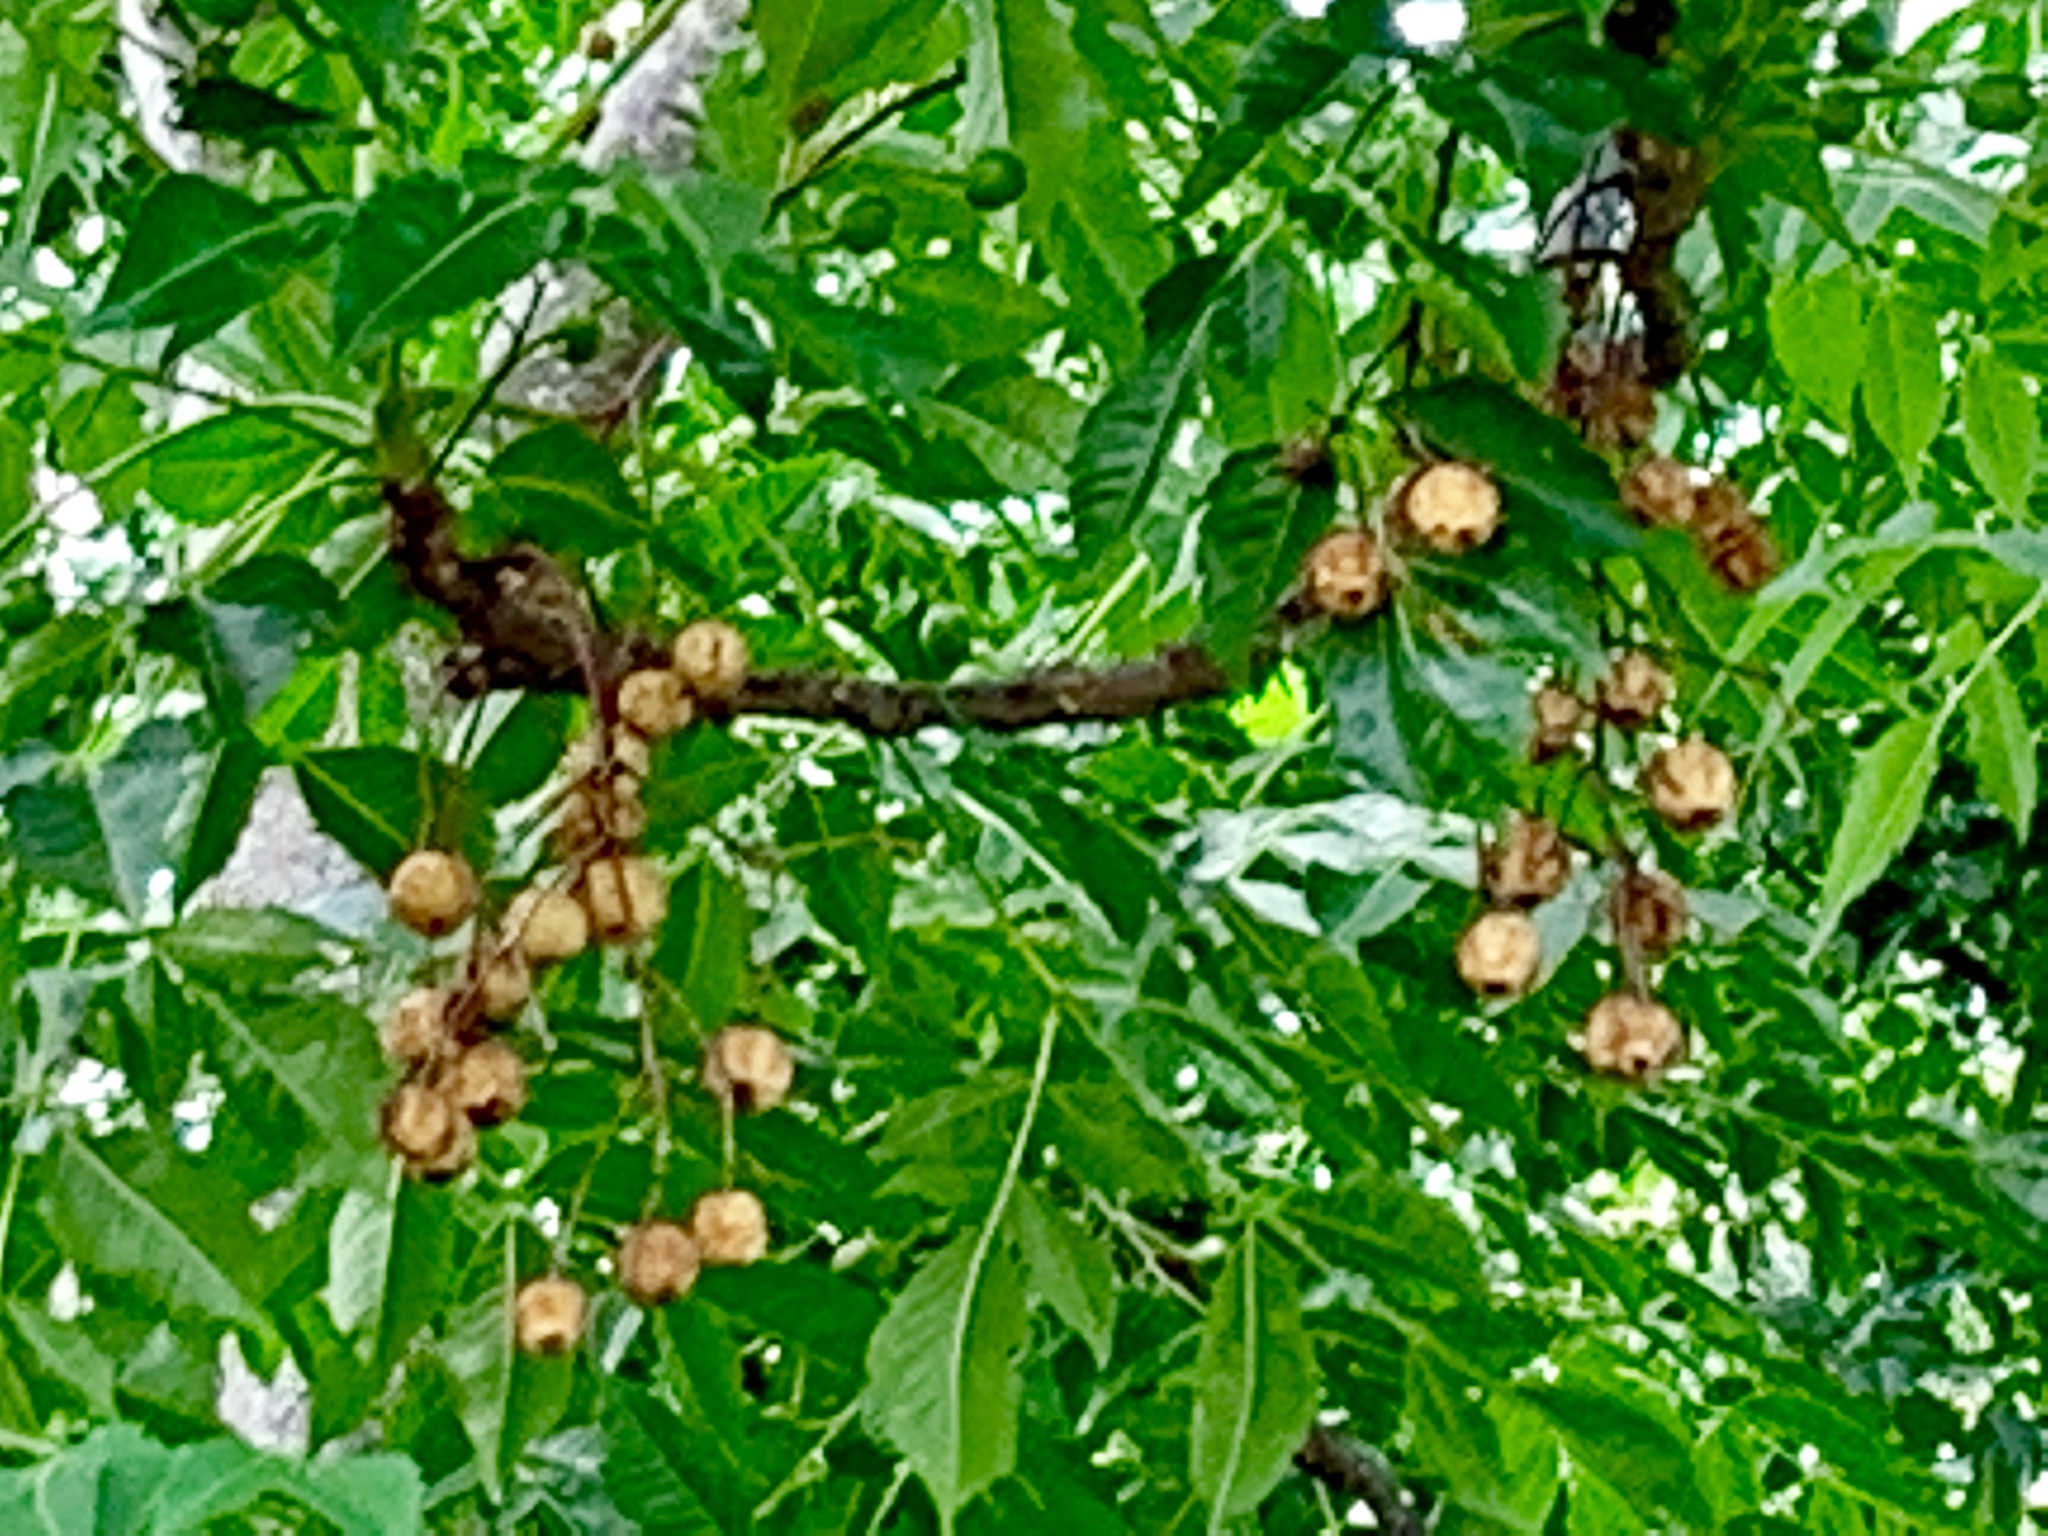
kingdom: Plantae
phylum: Tracheophyta
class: Magnoliopsida
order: Sapindales
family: Meliaceae
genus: Melia
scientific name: Melia azedarach
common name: Chinaberrytree
